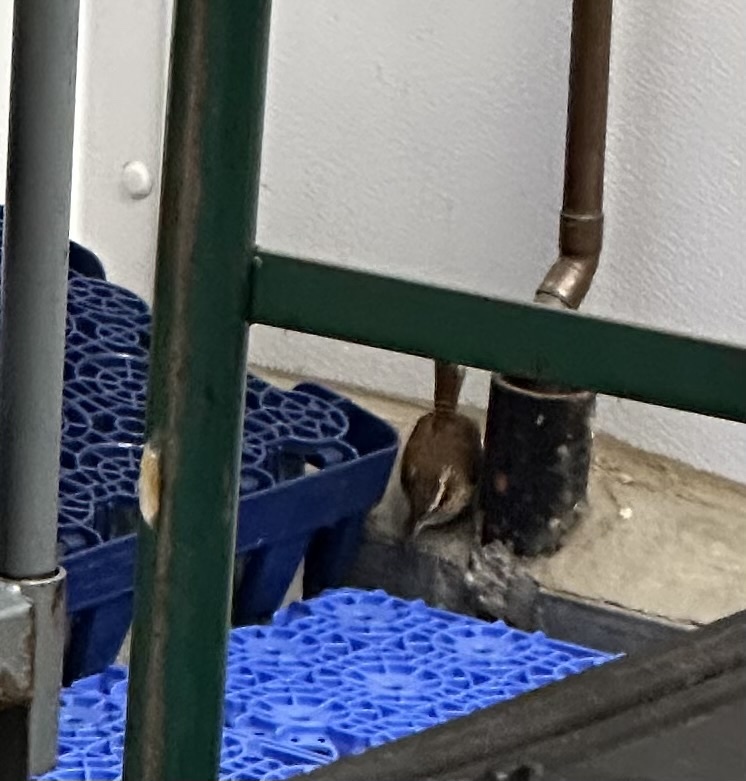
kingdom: Animalia
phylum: Chordata
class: Aves
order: Passeriformes
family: Troglodytidae
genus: Thryothorus
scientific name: Thryothorus ludovicianus
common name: Carolina wren
